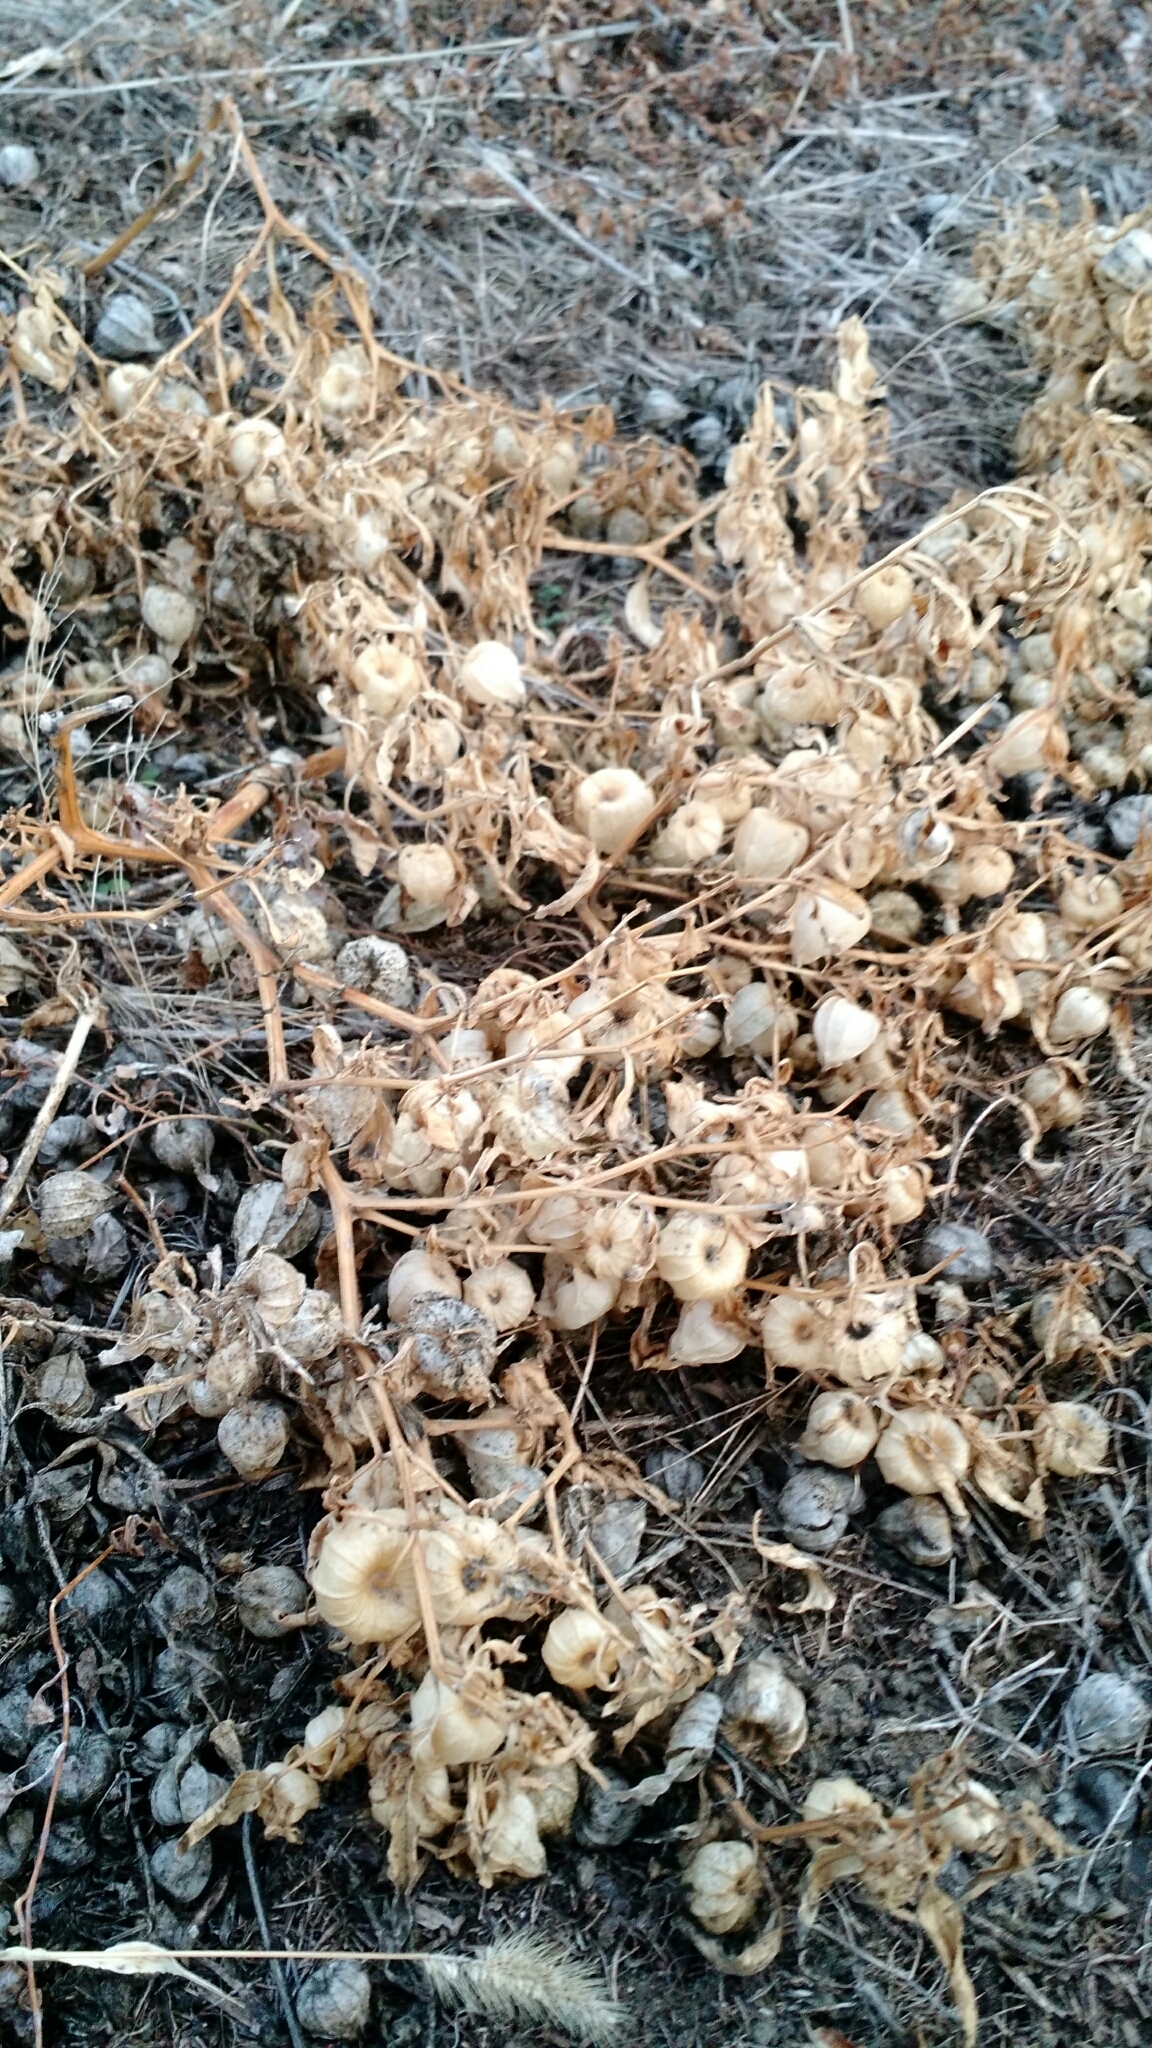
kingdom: Plantae
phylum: Tracheophyta
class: Magnoliopsida
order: Solanales
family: Solanaceae
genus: Physalis
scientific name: Physalis longifolia
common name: Common ground-cherry
